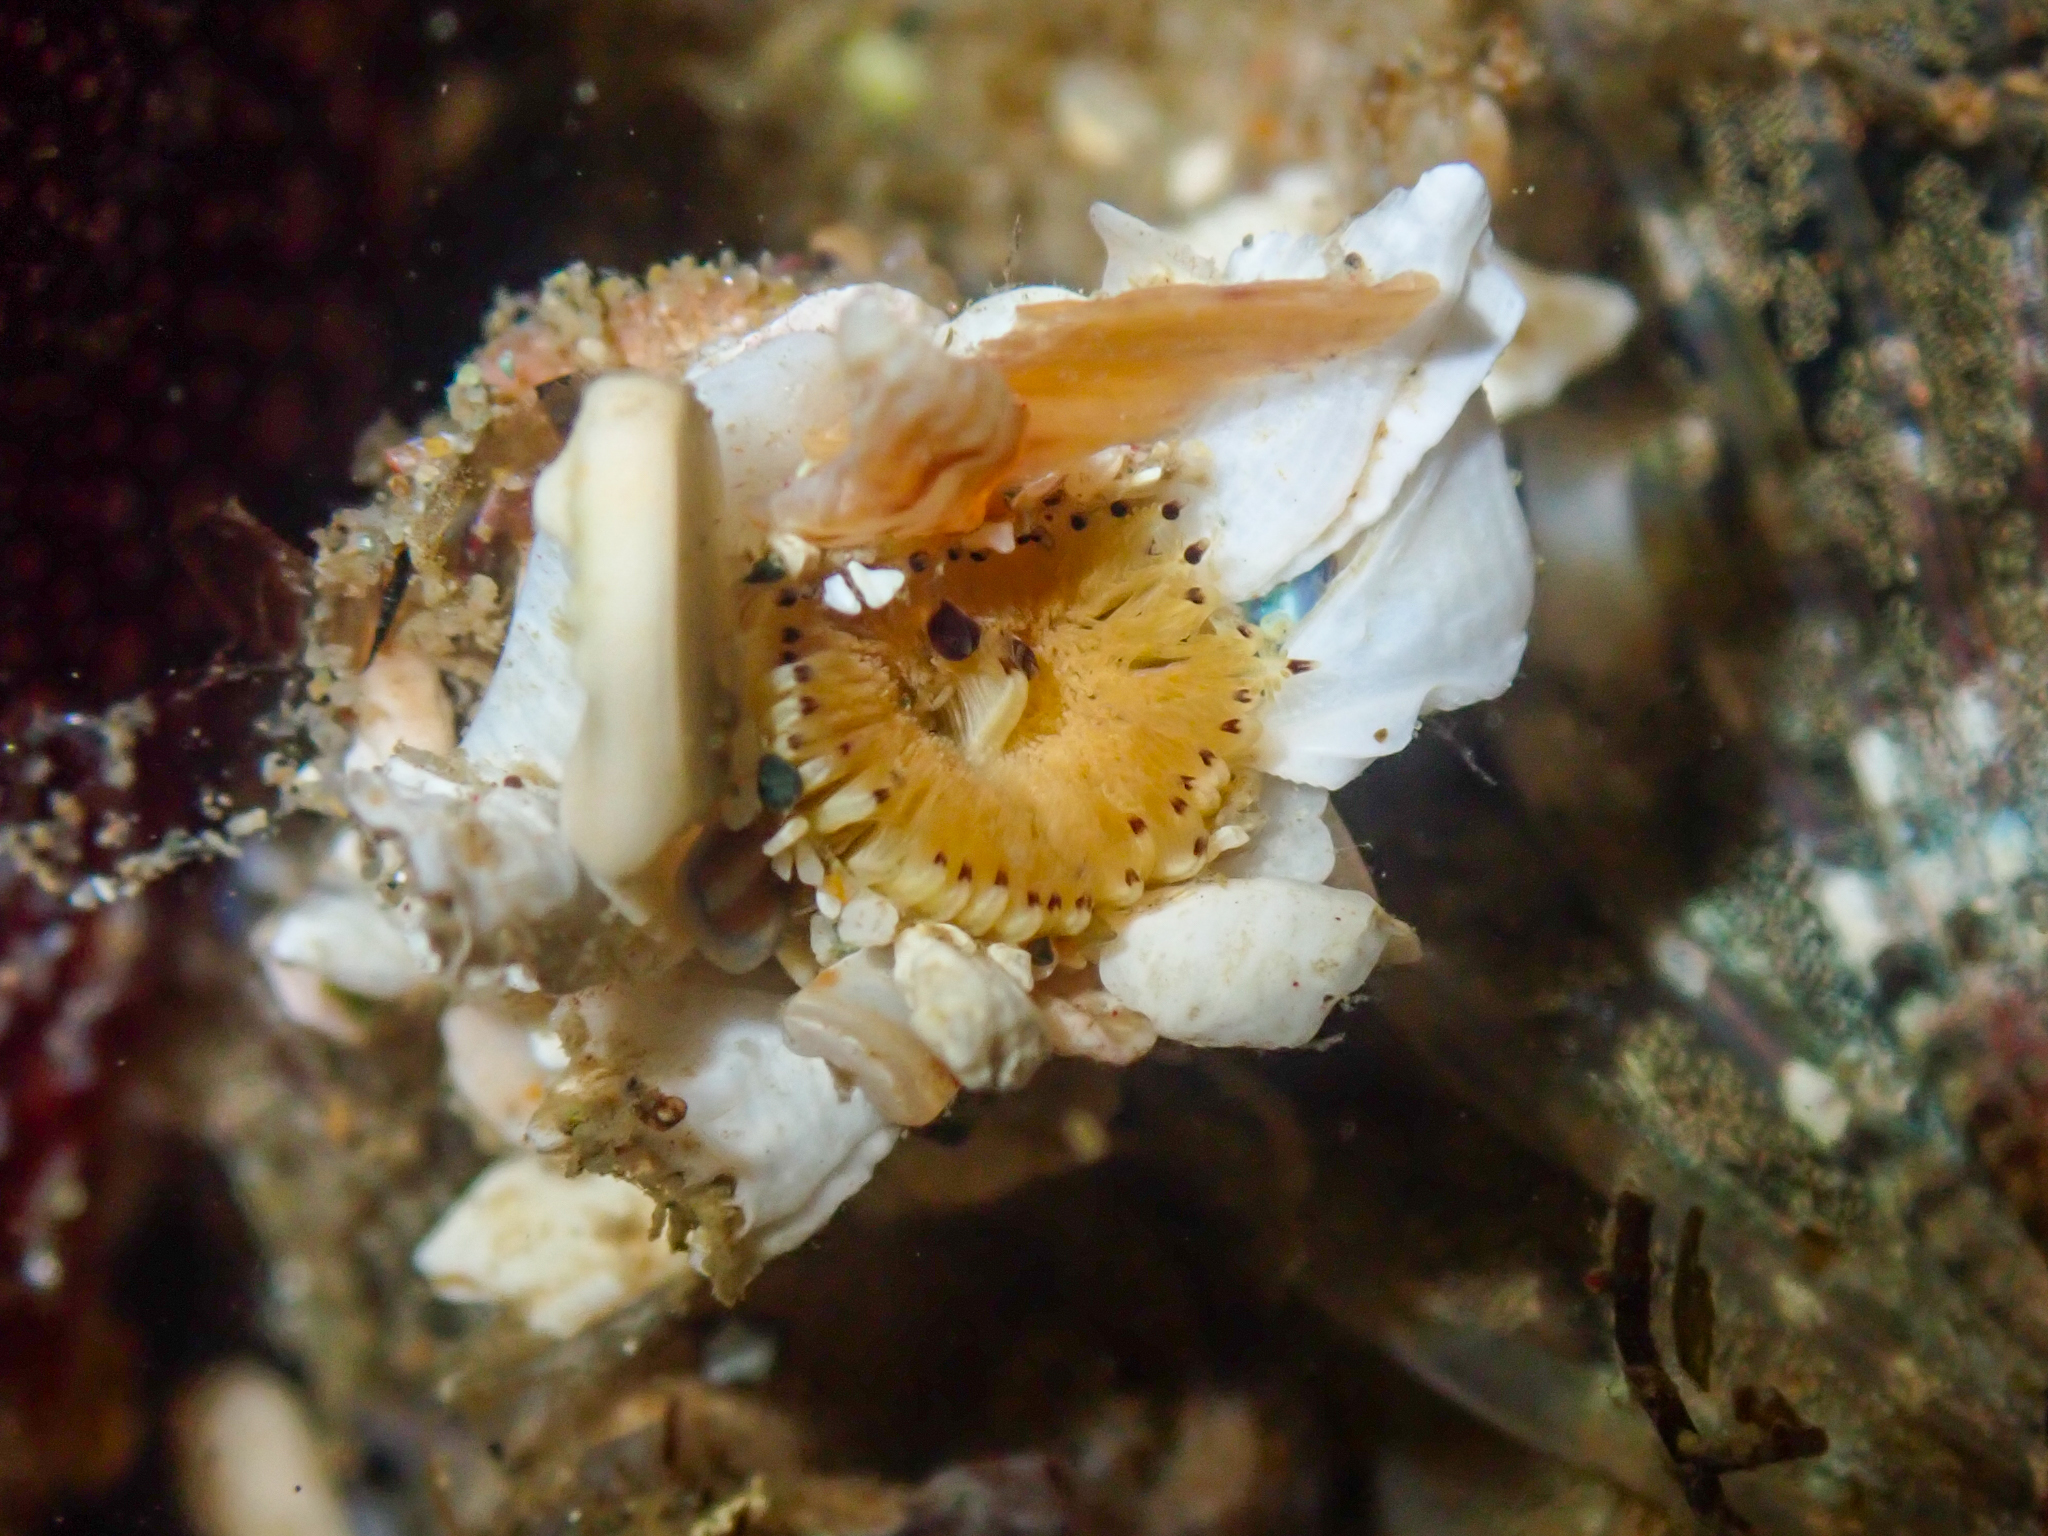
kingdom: Animalia
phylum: Annelida
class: Polychaeta
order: Sabellida
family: Sabellidae
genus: Acromegalomma
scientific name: Acromegalomma splendidum
